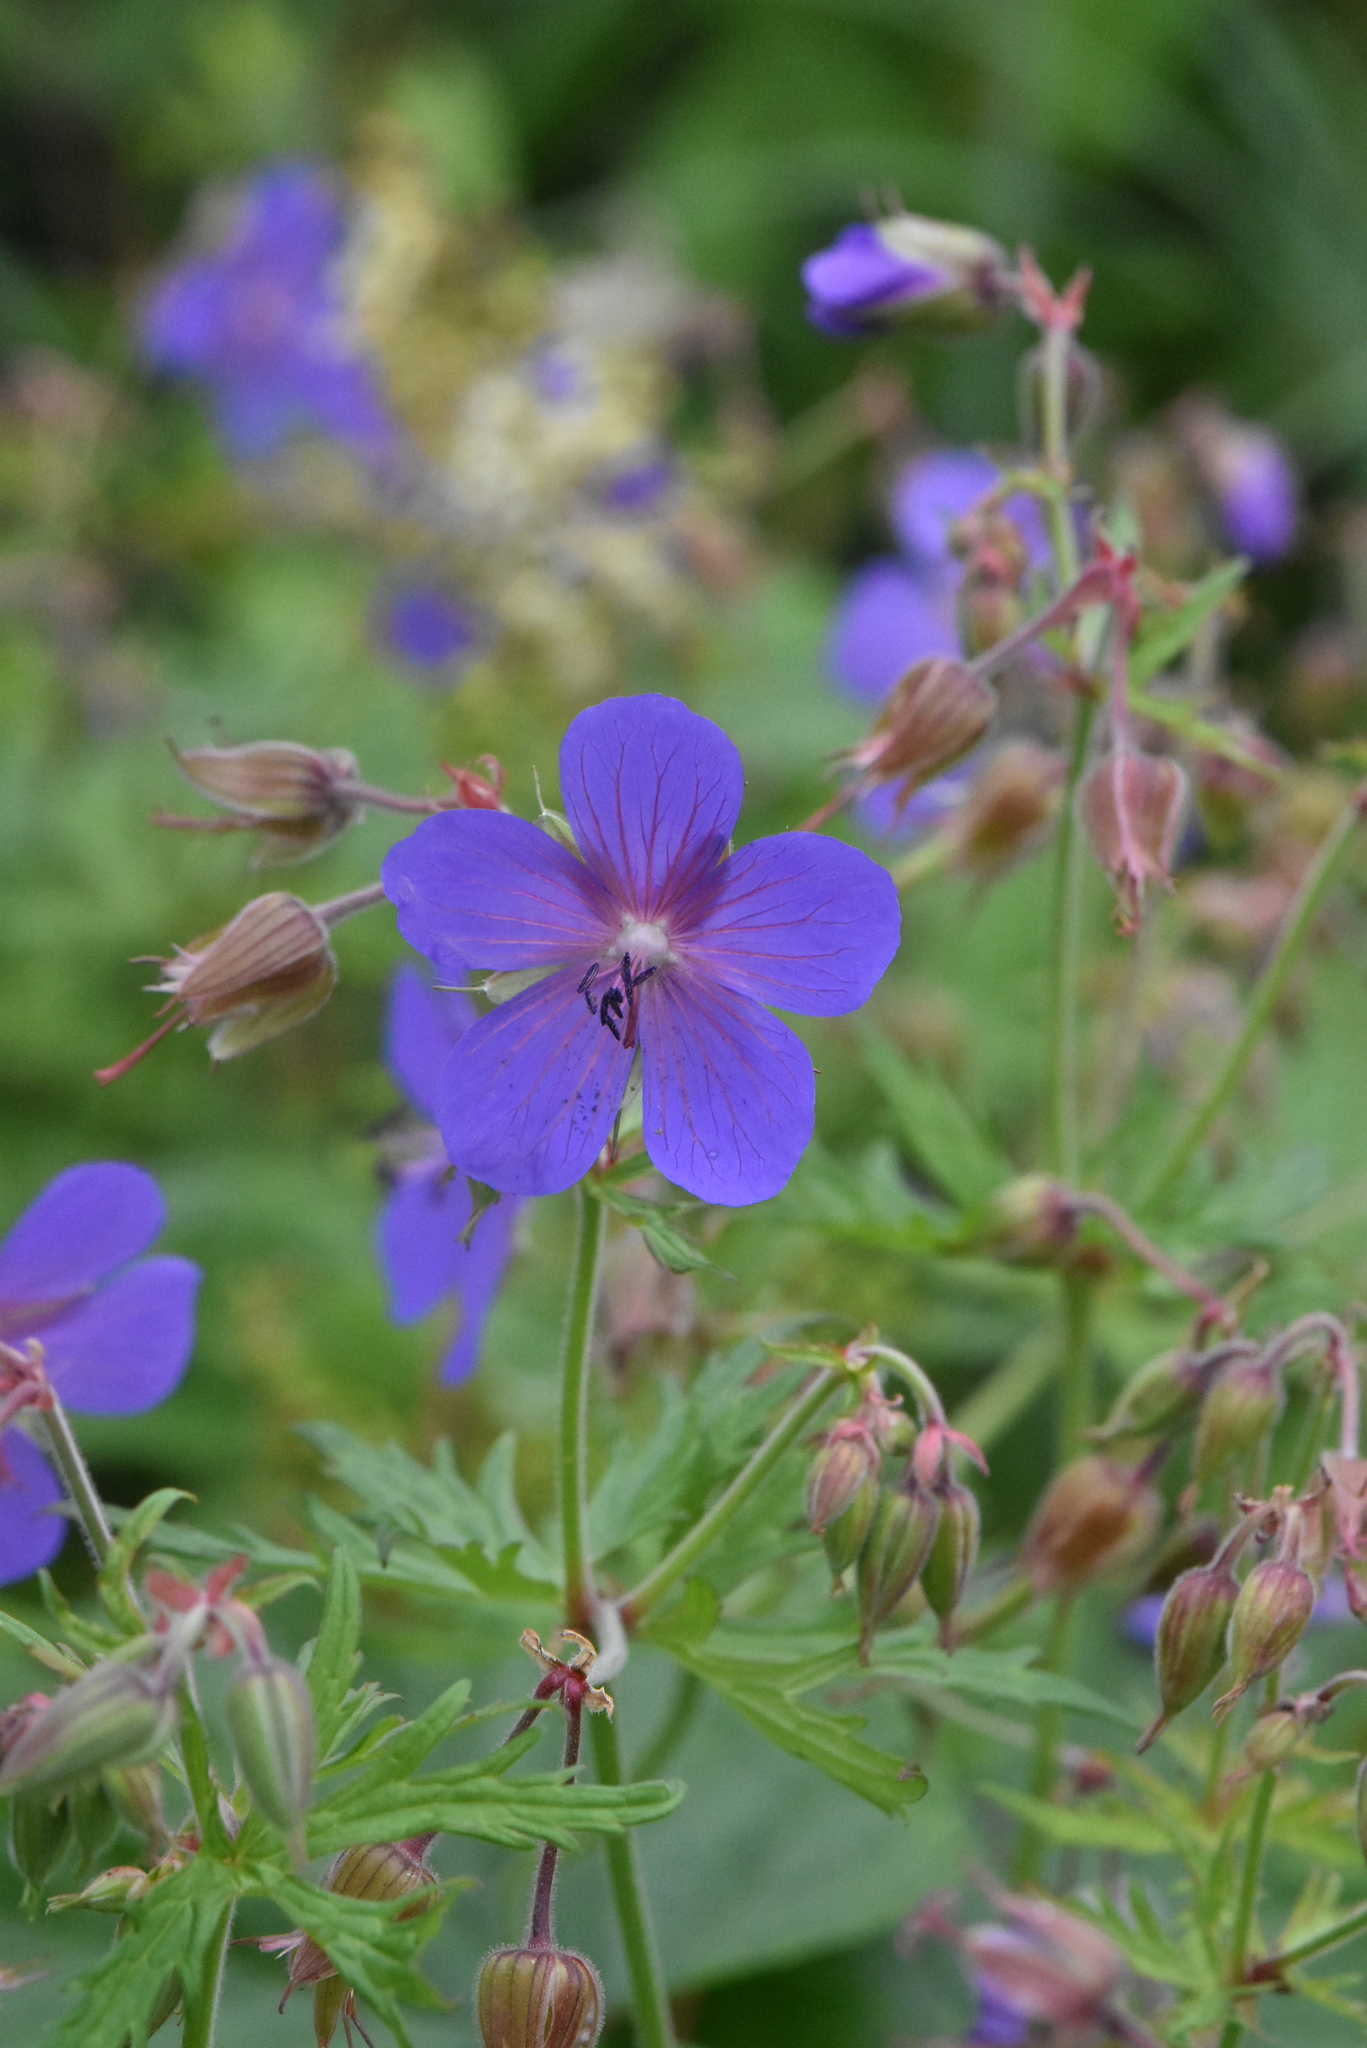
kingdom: Plantae
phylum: Tracheophyta
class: Magnoliopsida
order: Geraniales
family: Geraniaceae
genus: Geranium
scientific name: Geranium pratense
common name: Meadow crane's-bill
